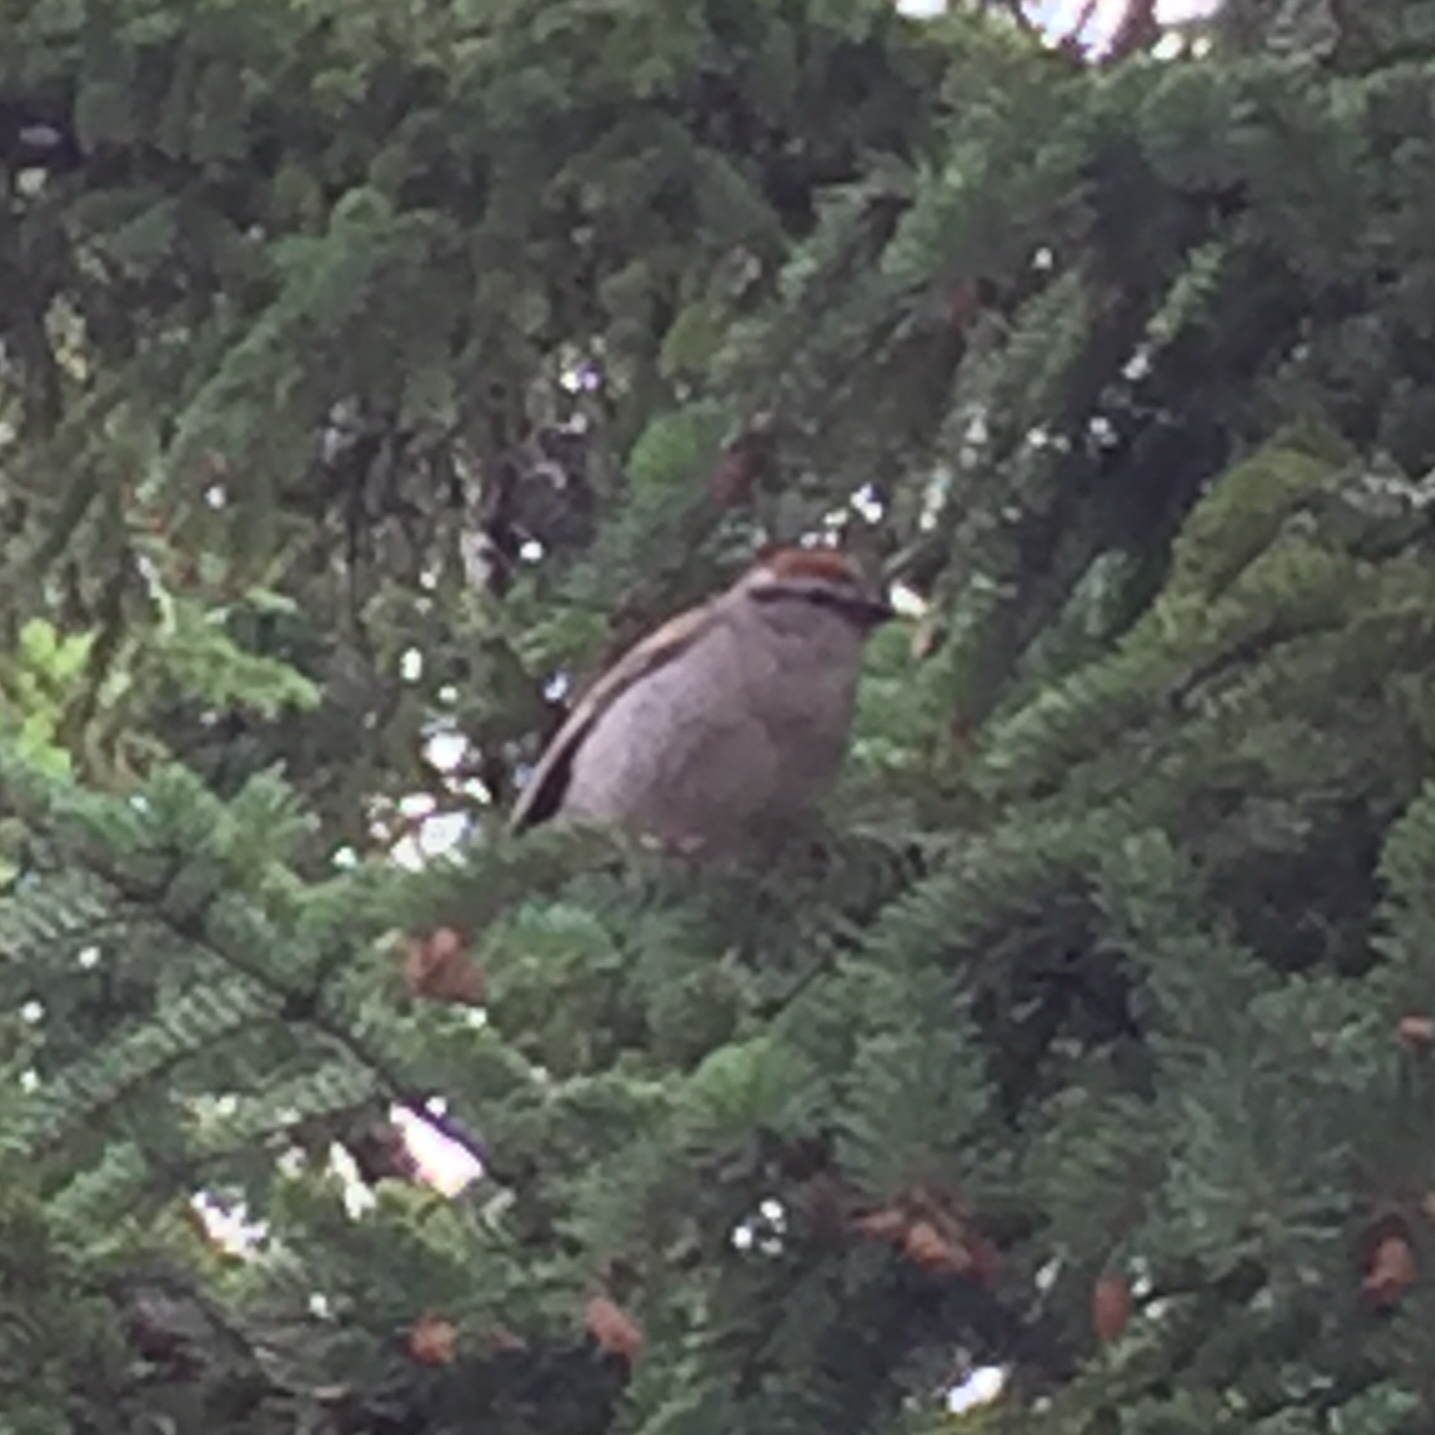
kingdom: Animalia
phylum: Chordata
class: Aves
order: Passeriformes
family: Passerellidae
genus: Spizella
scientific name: Spizella passerina
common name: Chipping sparrow
